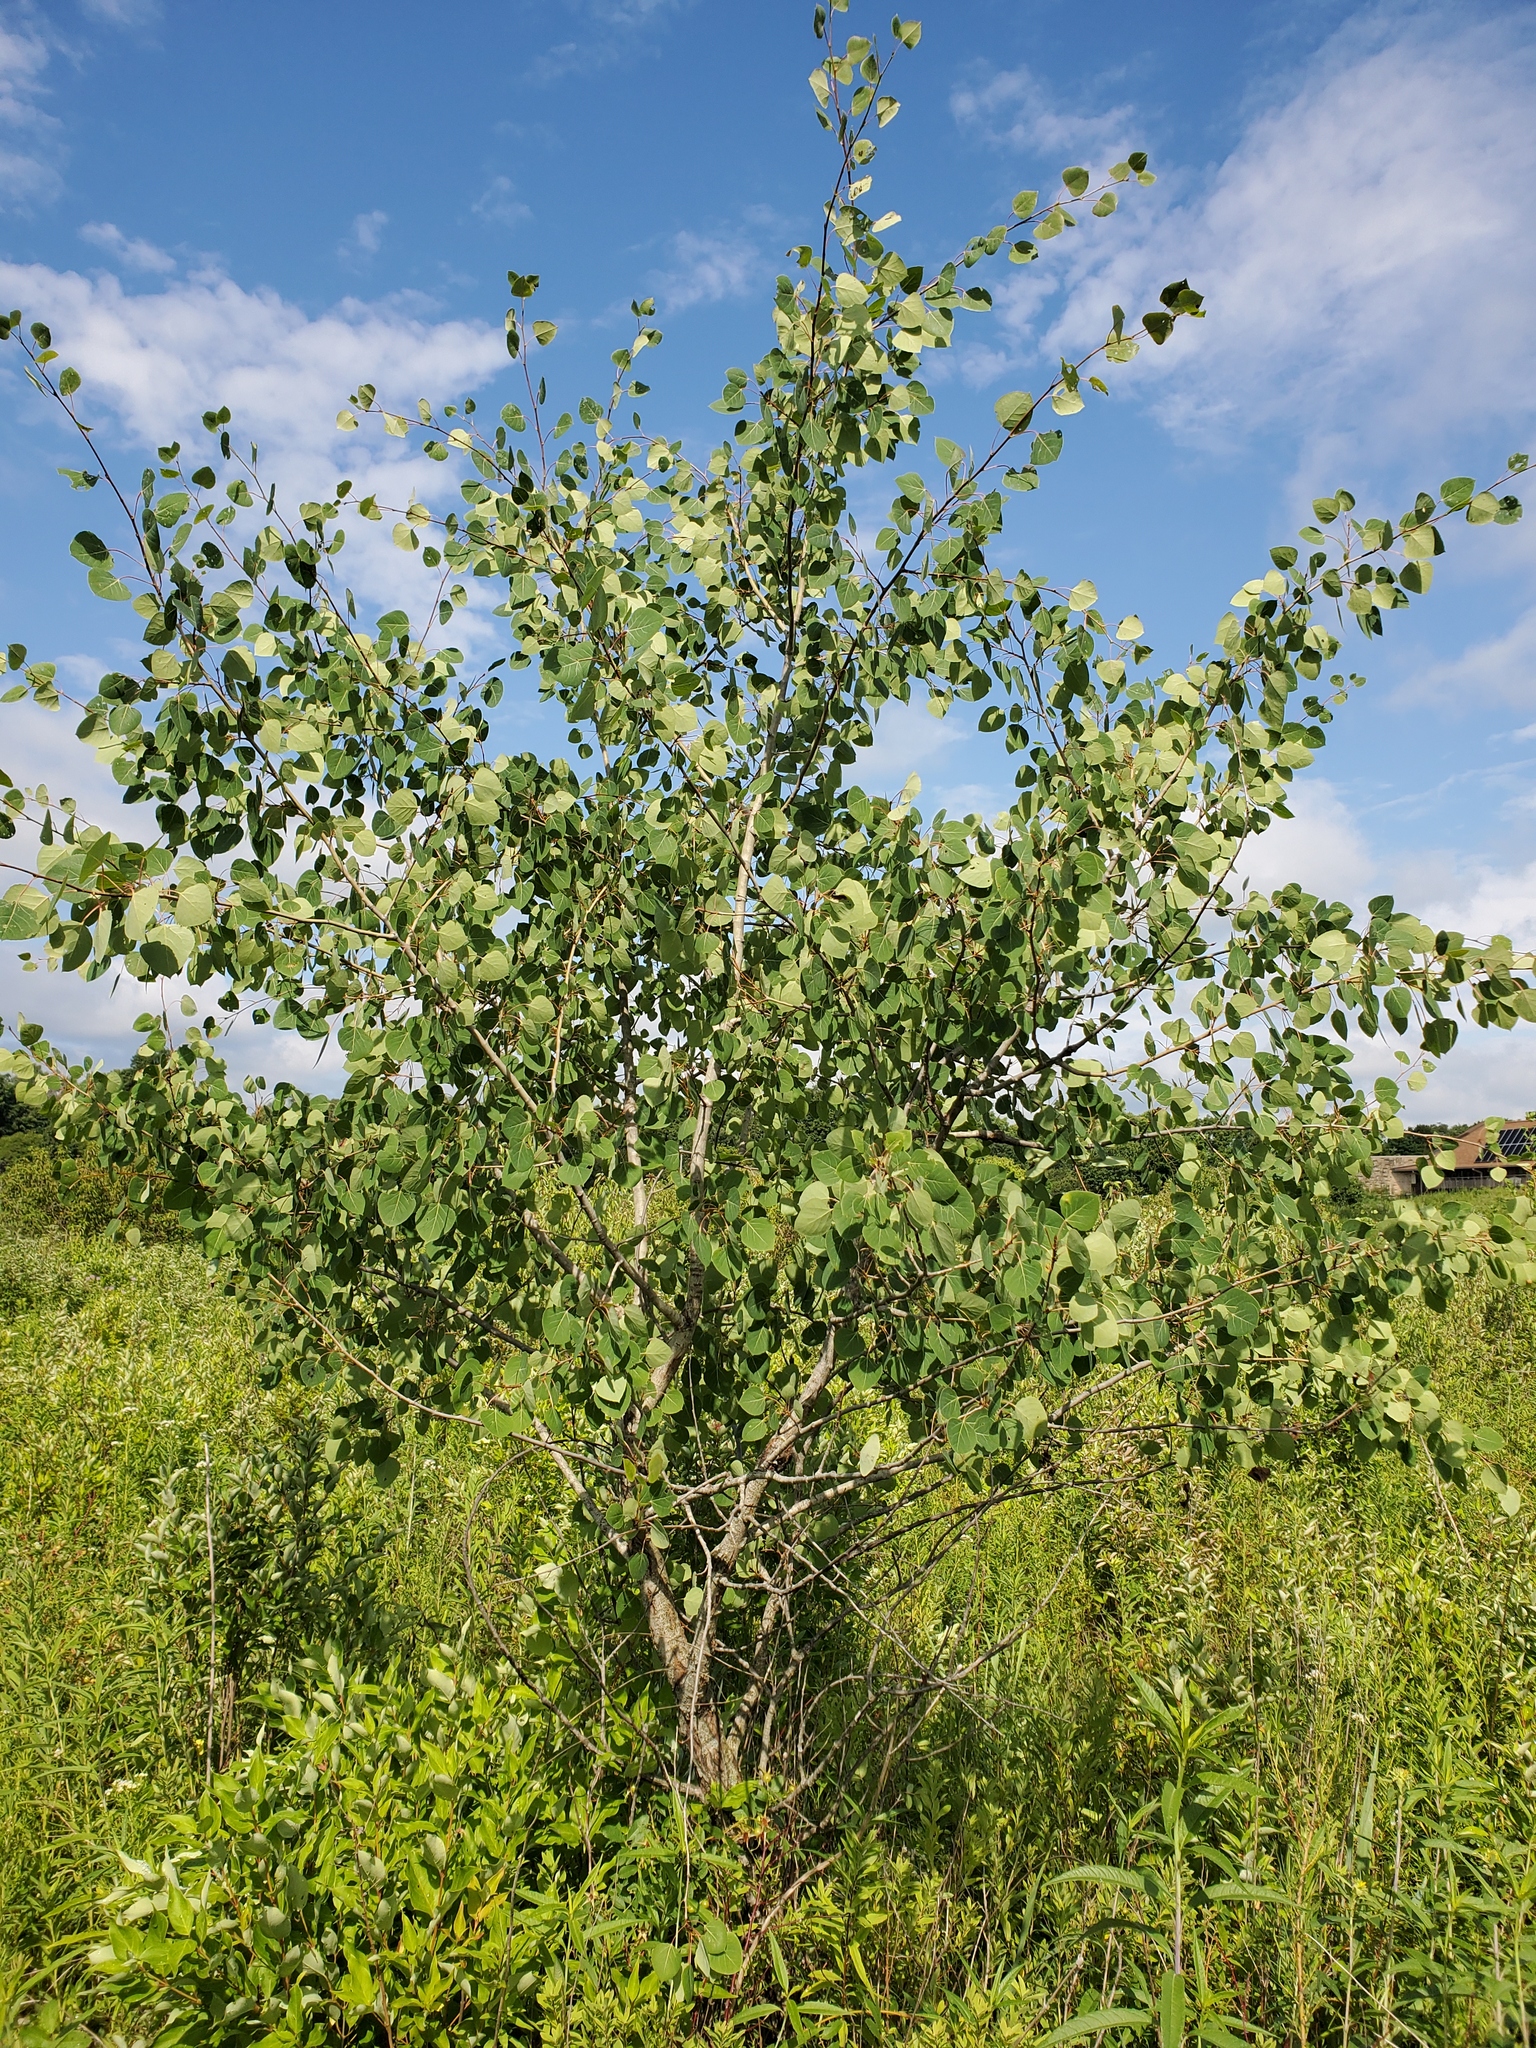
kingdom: Plantae
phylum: Tracheophyta
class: Magnoliopsida
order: Malpighiales
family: Salicaceae
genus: Populus
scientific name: Populus tremuloides
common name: Quaking aspen
